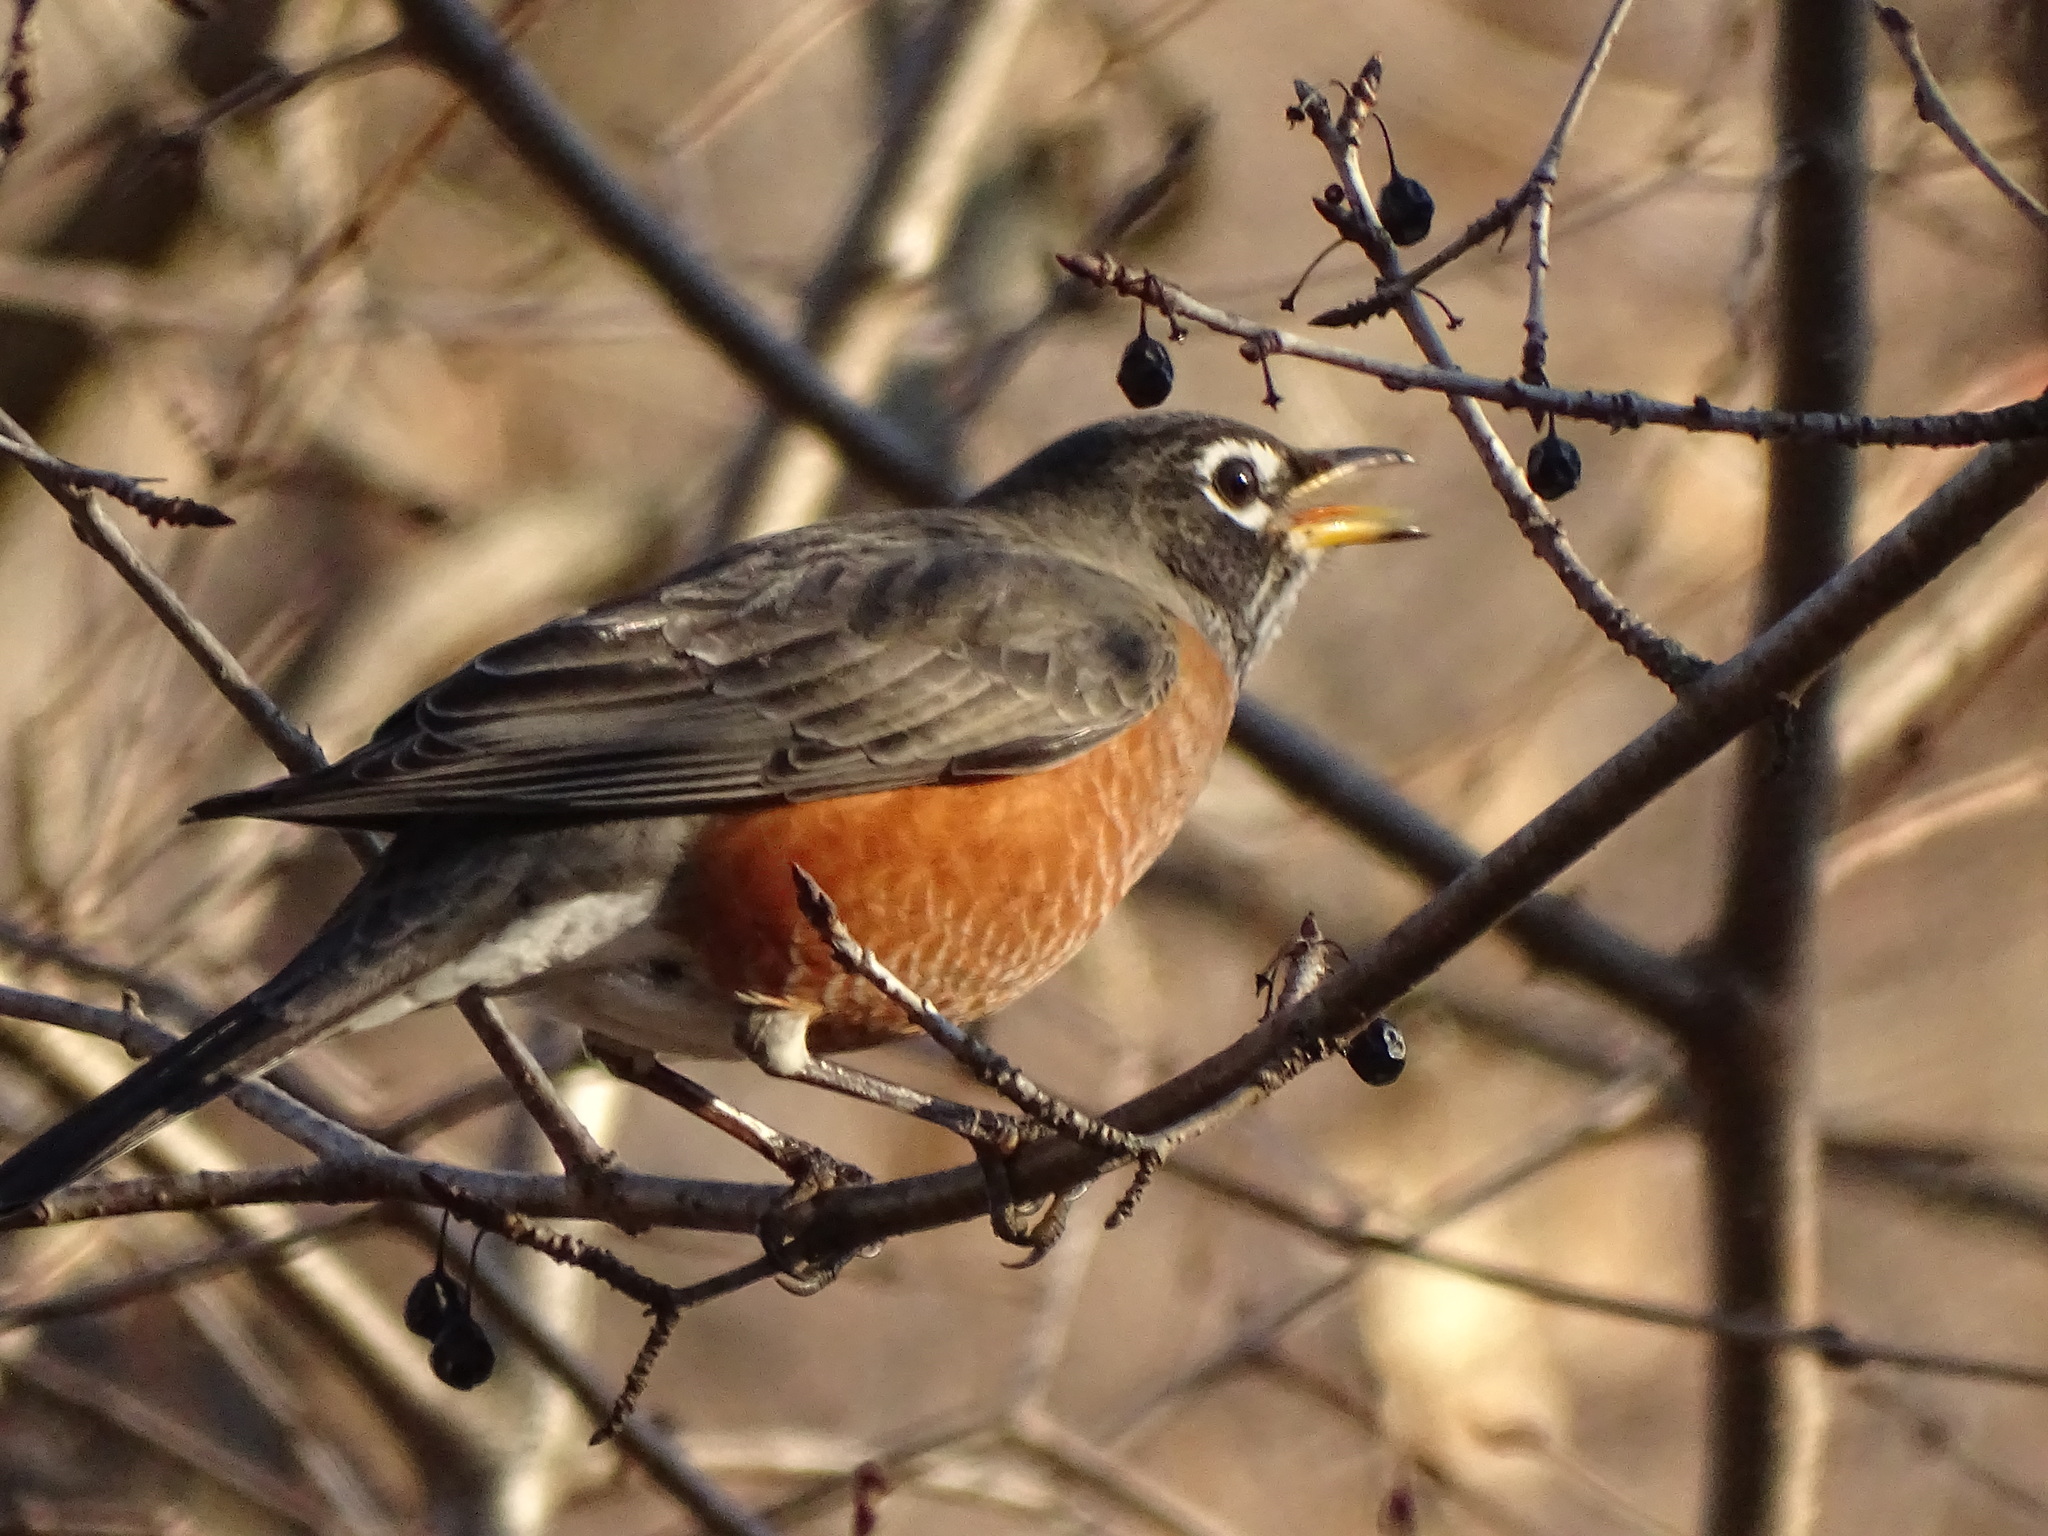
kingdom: Animalia
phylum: Chordata
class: Aves
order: Passeriformes
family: Turdidae
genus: Turdus
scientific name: Turdus migratorius
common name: American robin
